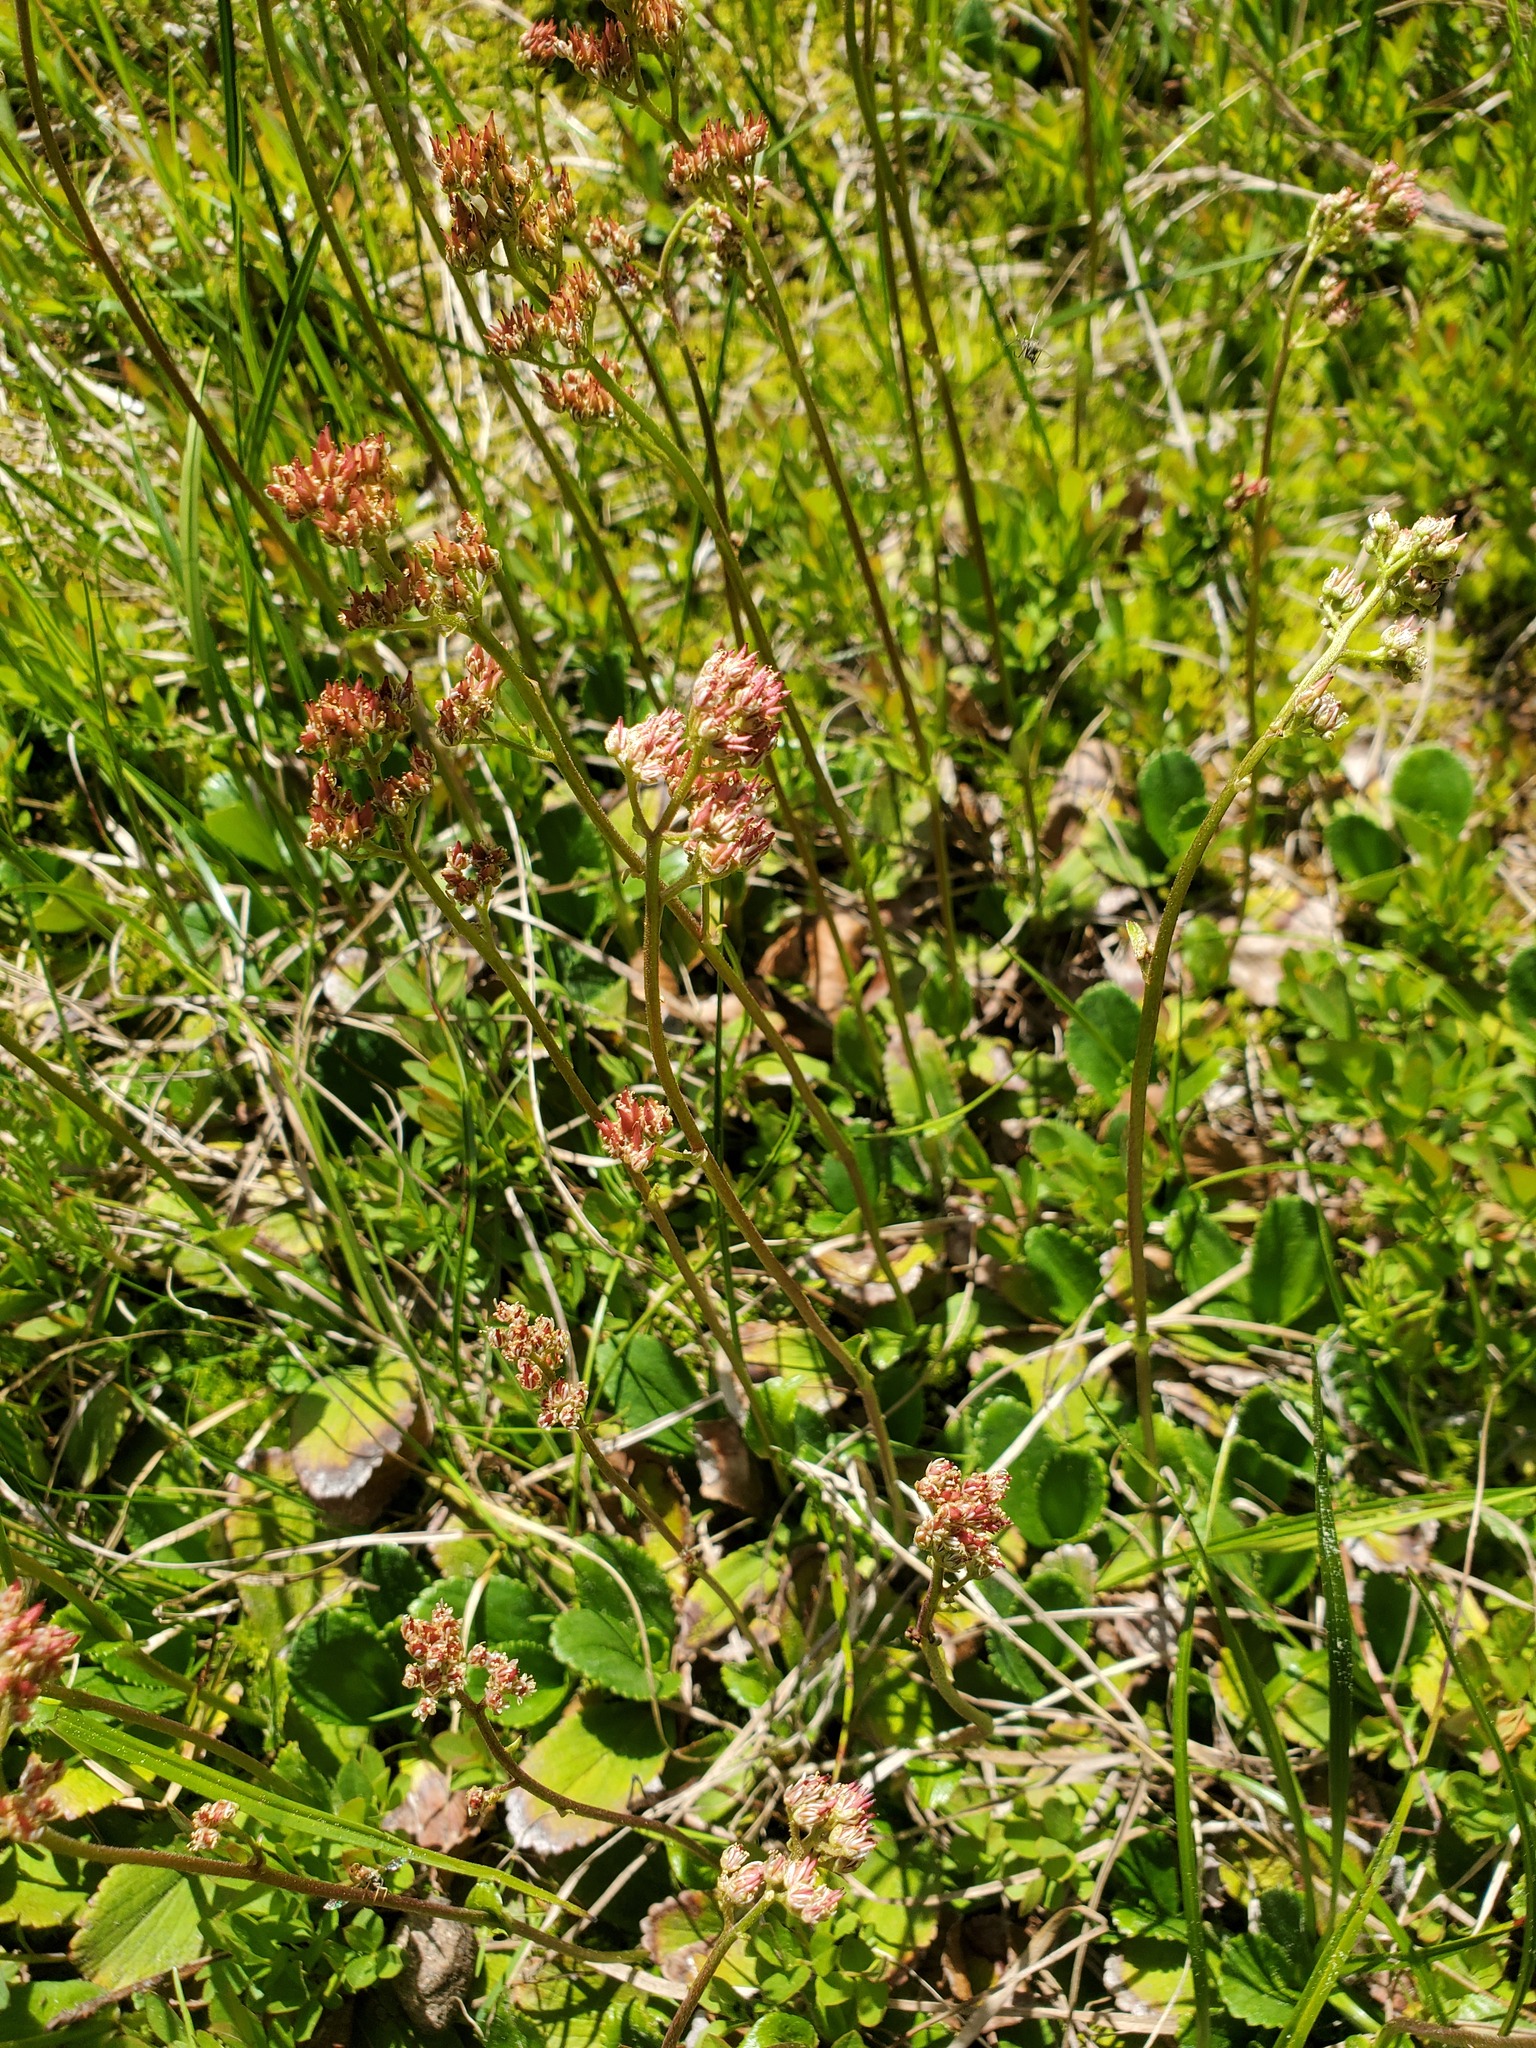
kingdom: Plantae
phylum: Tracheophyta
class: Magnoliopsida
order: Saxifragales
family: Saxifragaceae
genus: Leptarrhena
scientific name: Leptarrhena pyrolifolia
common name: Leatherleaf-saxifrage
